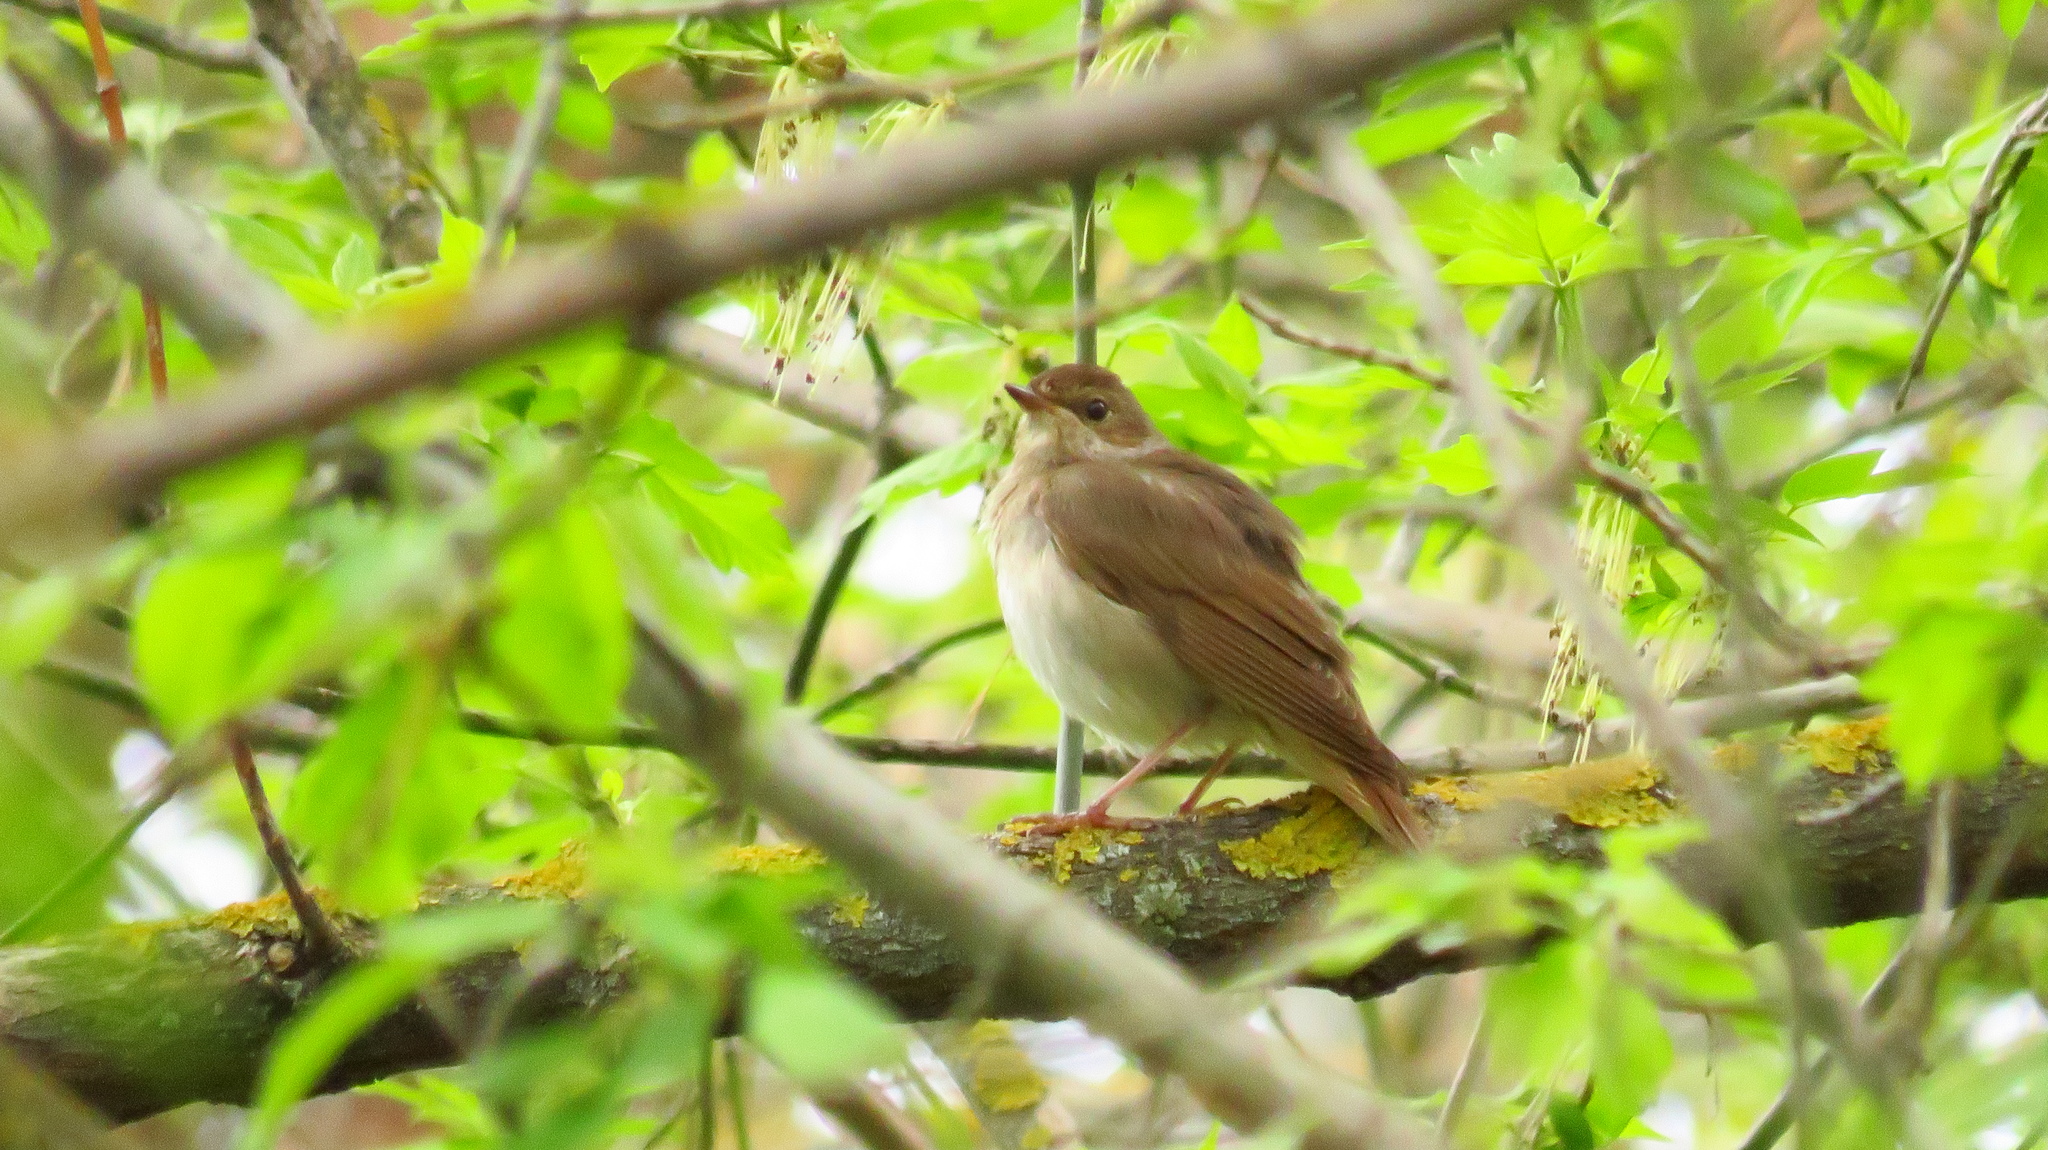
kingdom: Animalia
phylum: Chordata
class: Aves
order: Passeriformes
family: Muscicapidae
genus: Luscinia
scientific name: Luscinia luscinia
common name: Thrush nightingale
